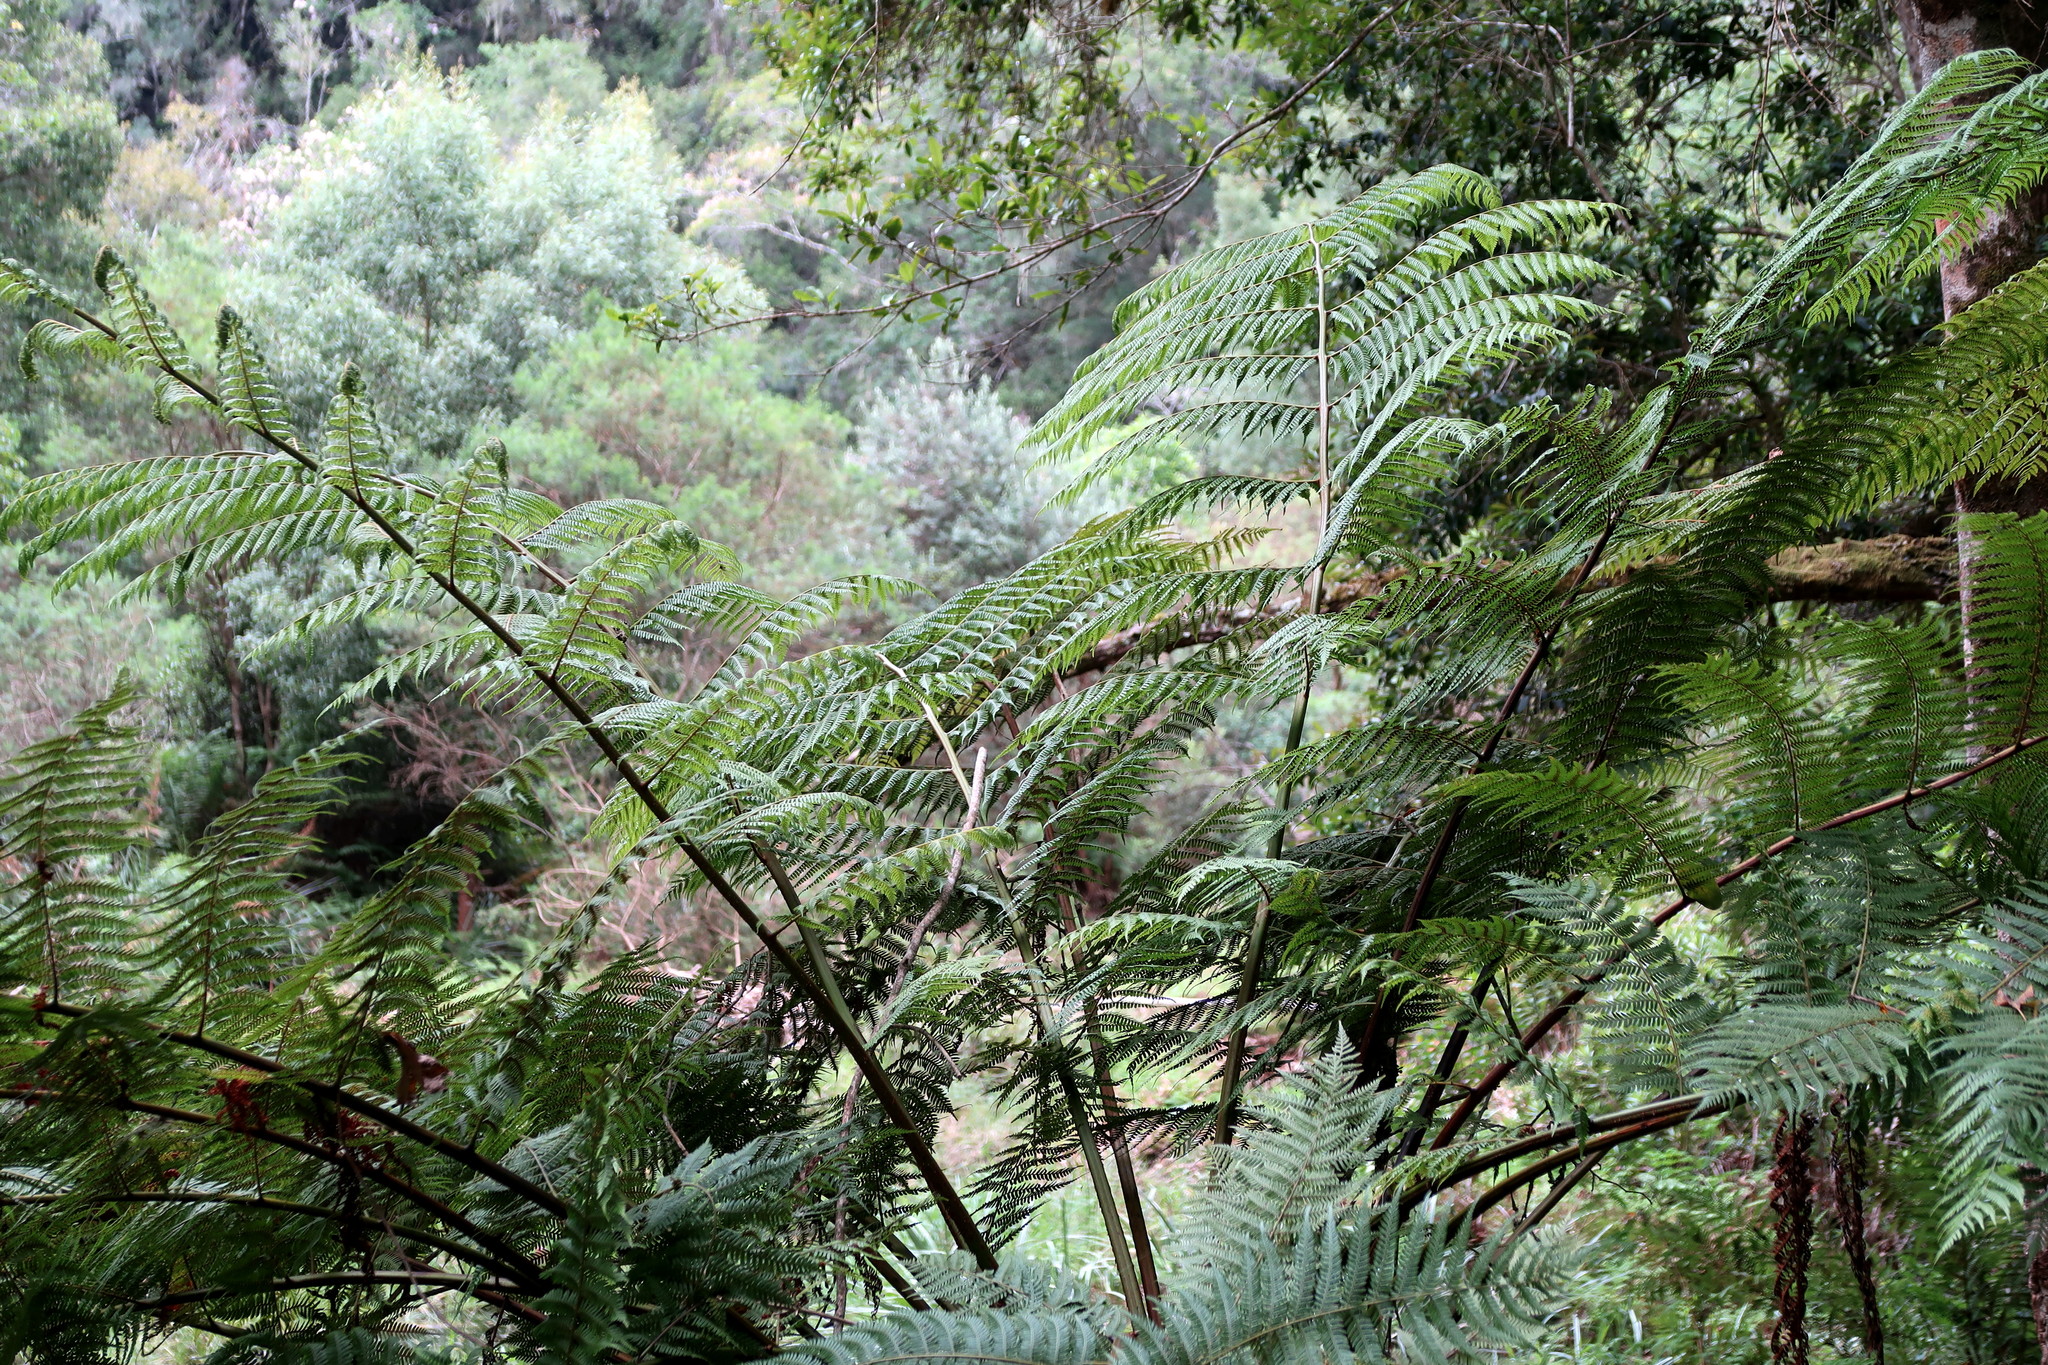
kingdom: Plantae
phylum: Tracheophyta
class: Polypodiopsida
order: Cyatheales
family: Cyatheaceae
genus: Gymnosphaera
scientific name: Gymnosphaera capensis
